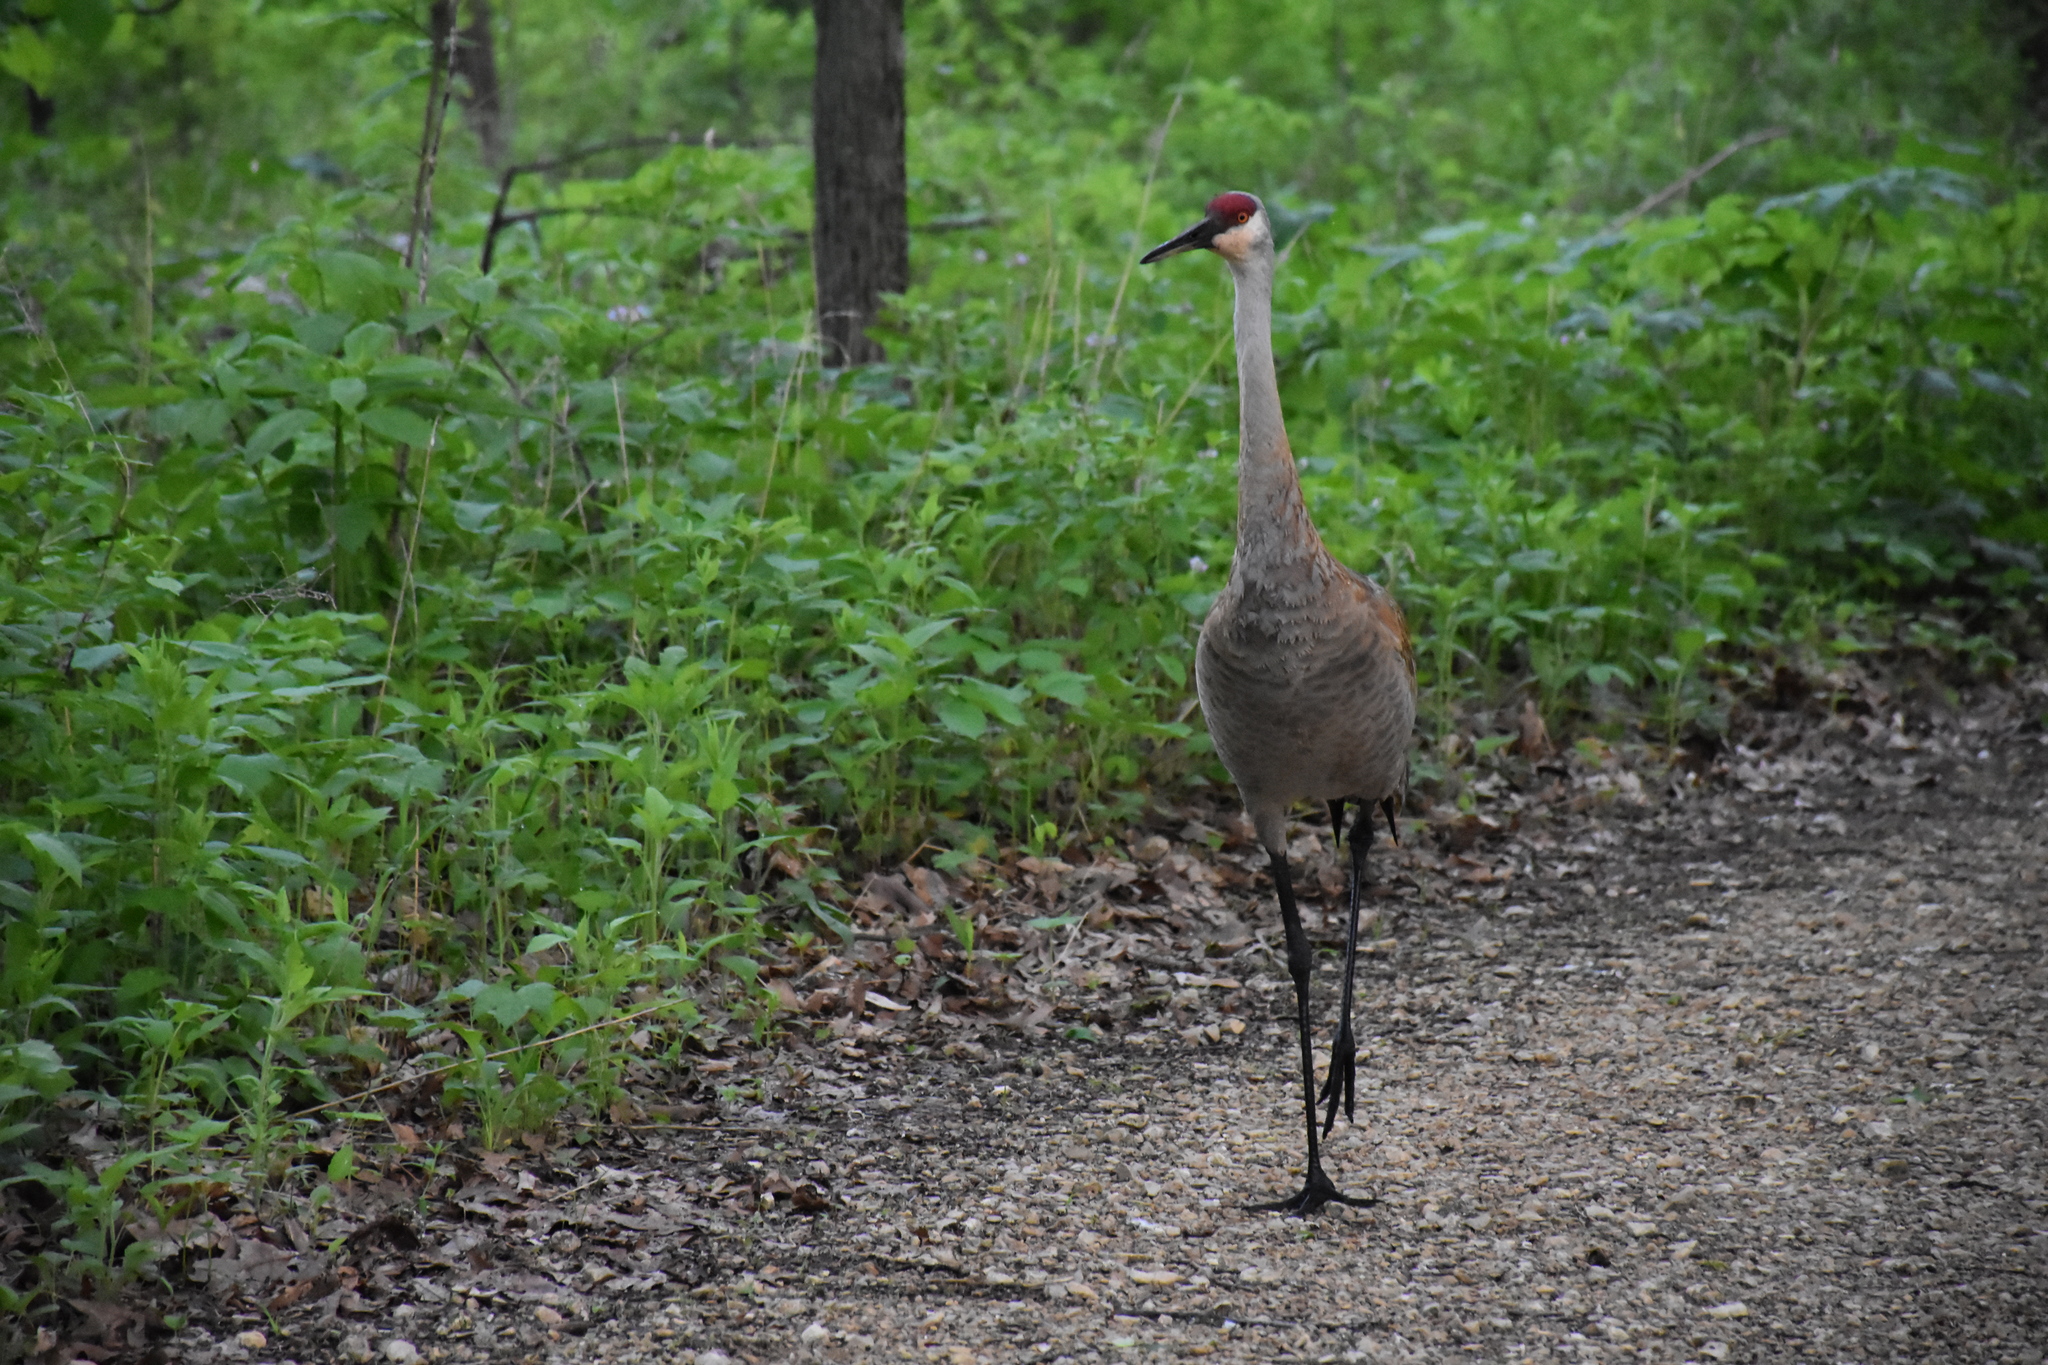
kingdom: Animalia
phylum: Chordata
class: Aves
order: Gruiformes
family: Gruidae
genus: Grus
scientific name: Grus canadensis
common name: Sandhill crane
